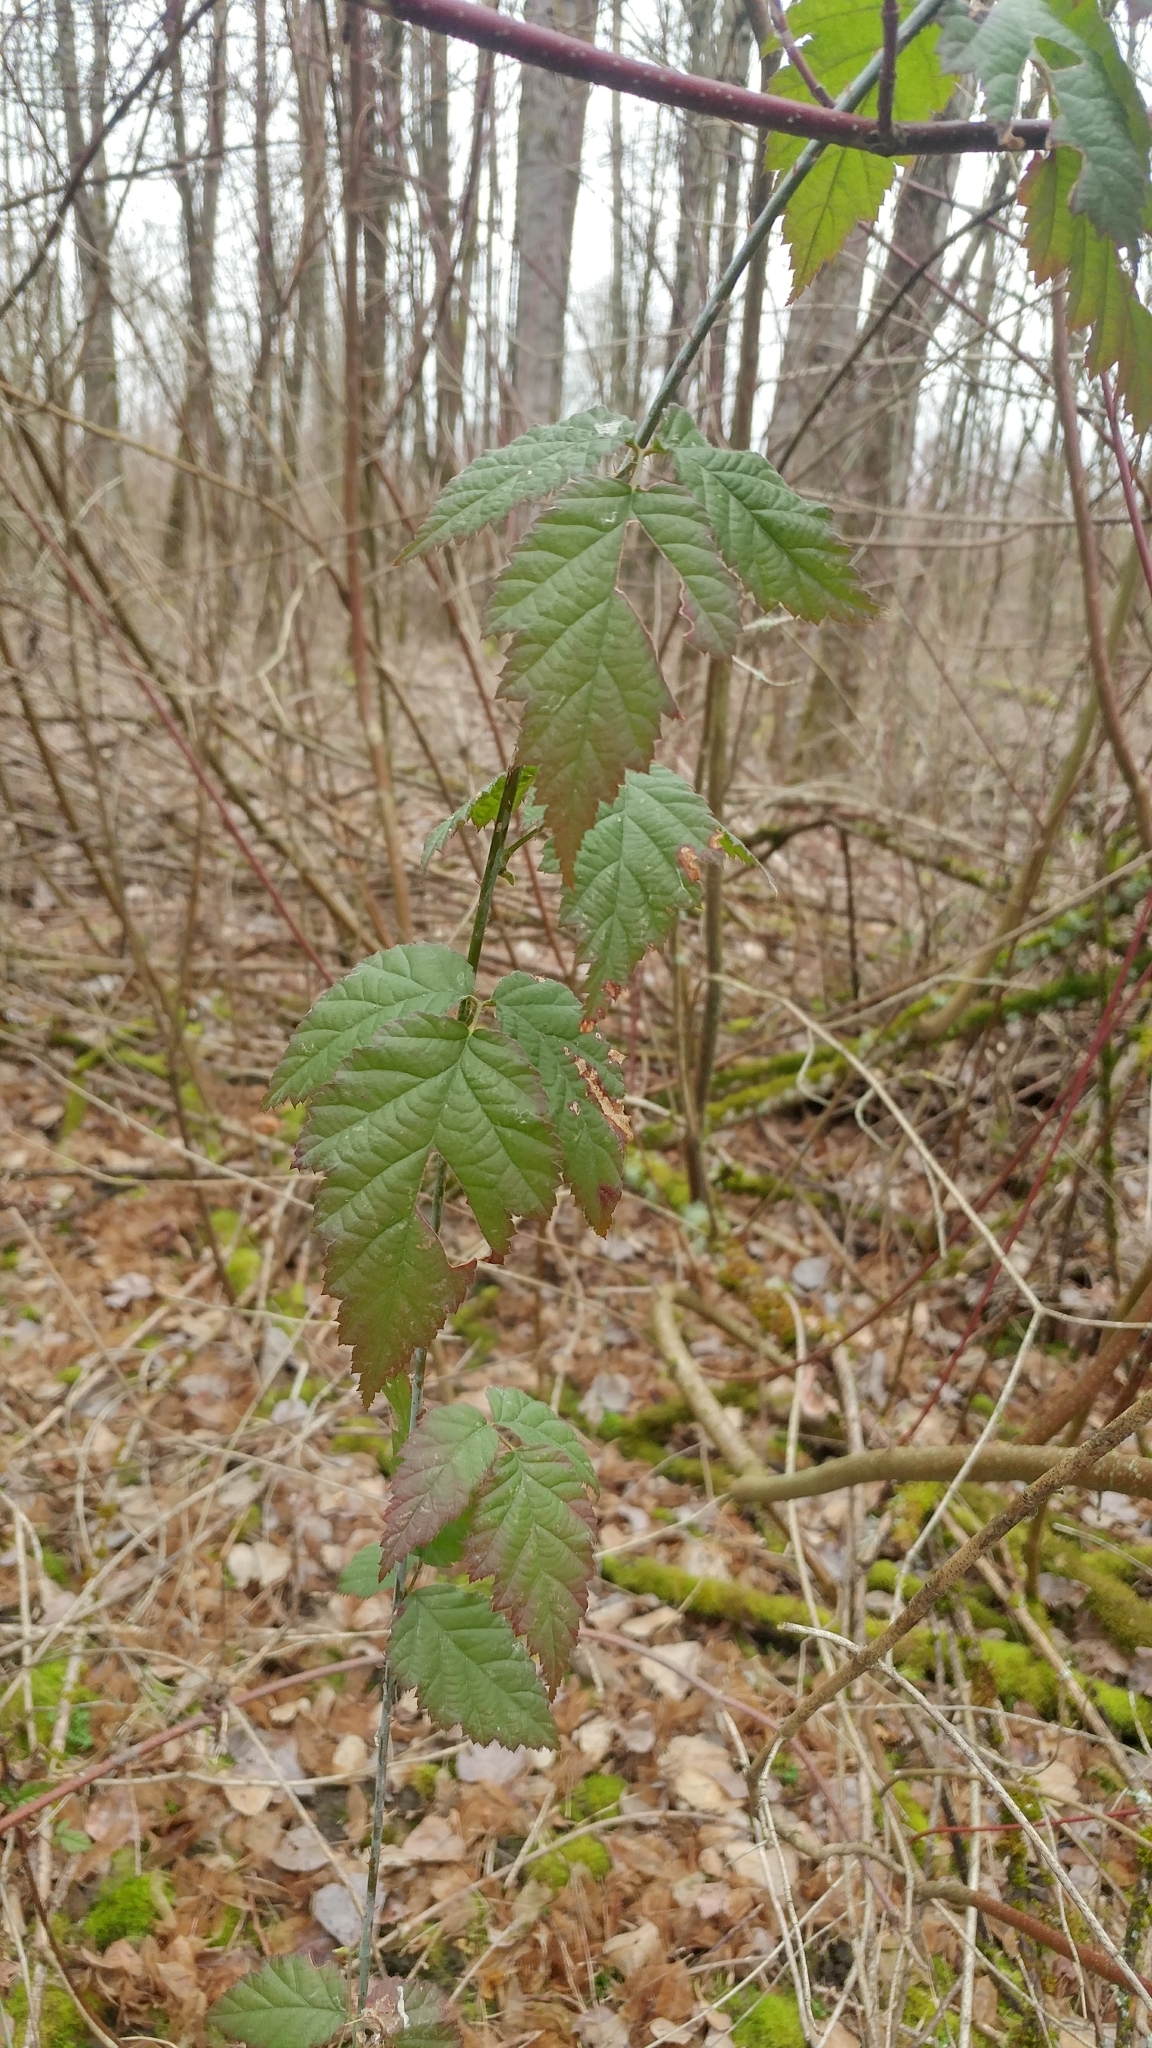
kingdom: Plantae
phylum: Tracheophyta
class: Magnoliopsida
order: Rosales
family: Rosaceae
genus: Rubus
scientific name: Rubus ursinus
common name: Pacific blackberry
